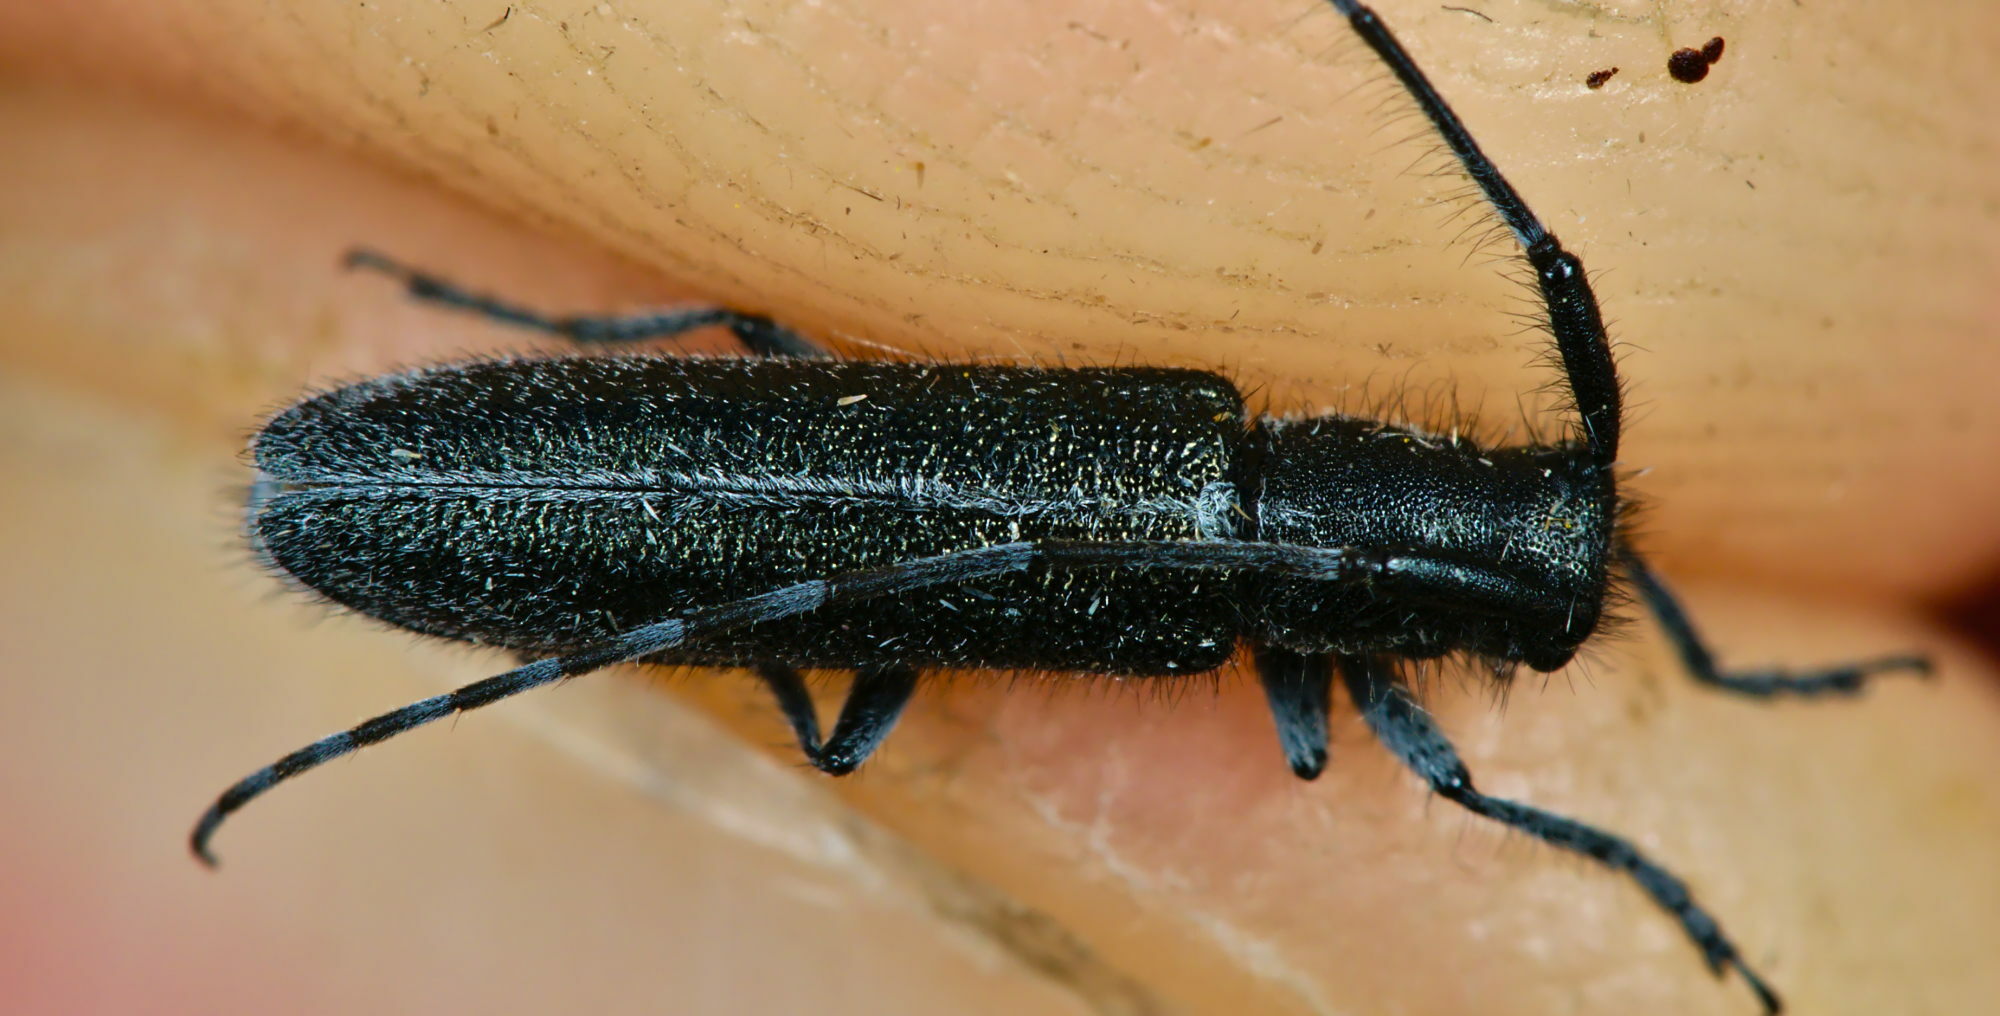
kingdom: Animalia
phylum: Arthropoda
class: Insecta
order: Coleoptera
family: Cerambycidae
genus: Agapanthia
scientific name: Agapanthia cardui
